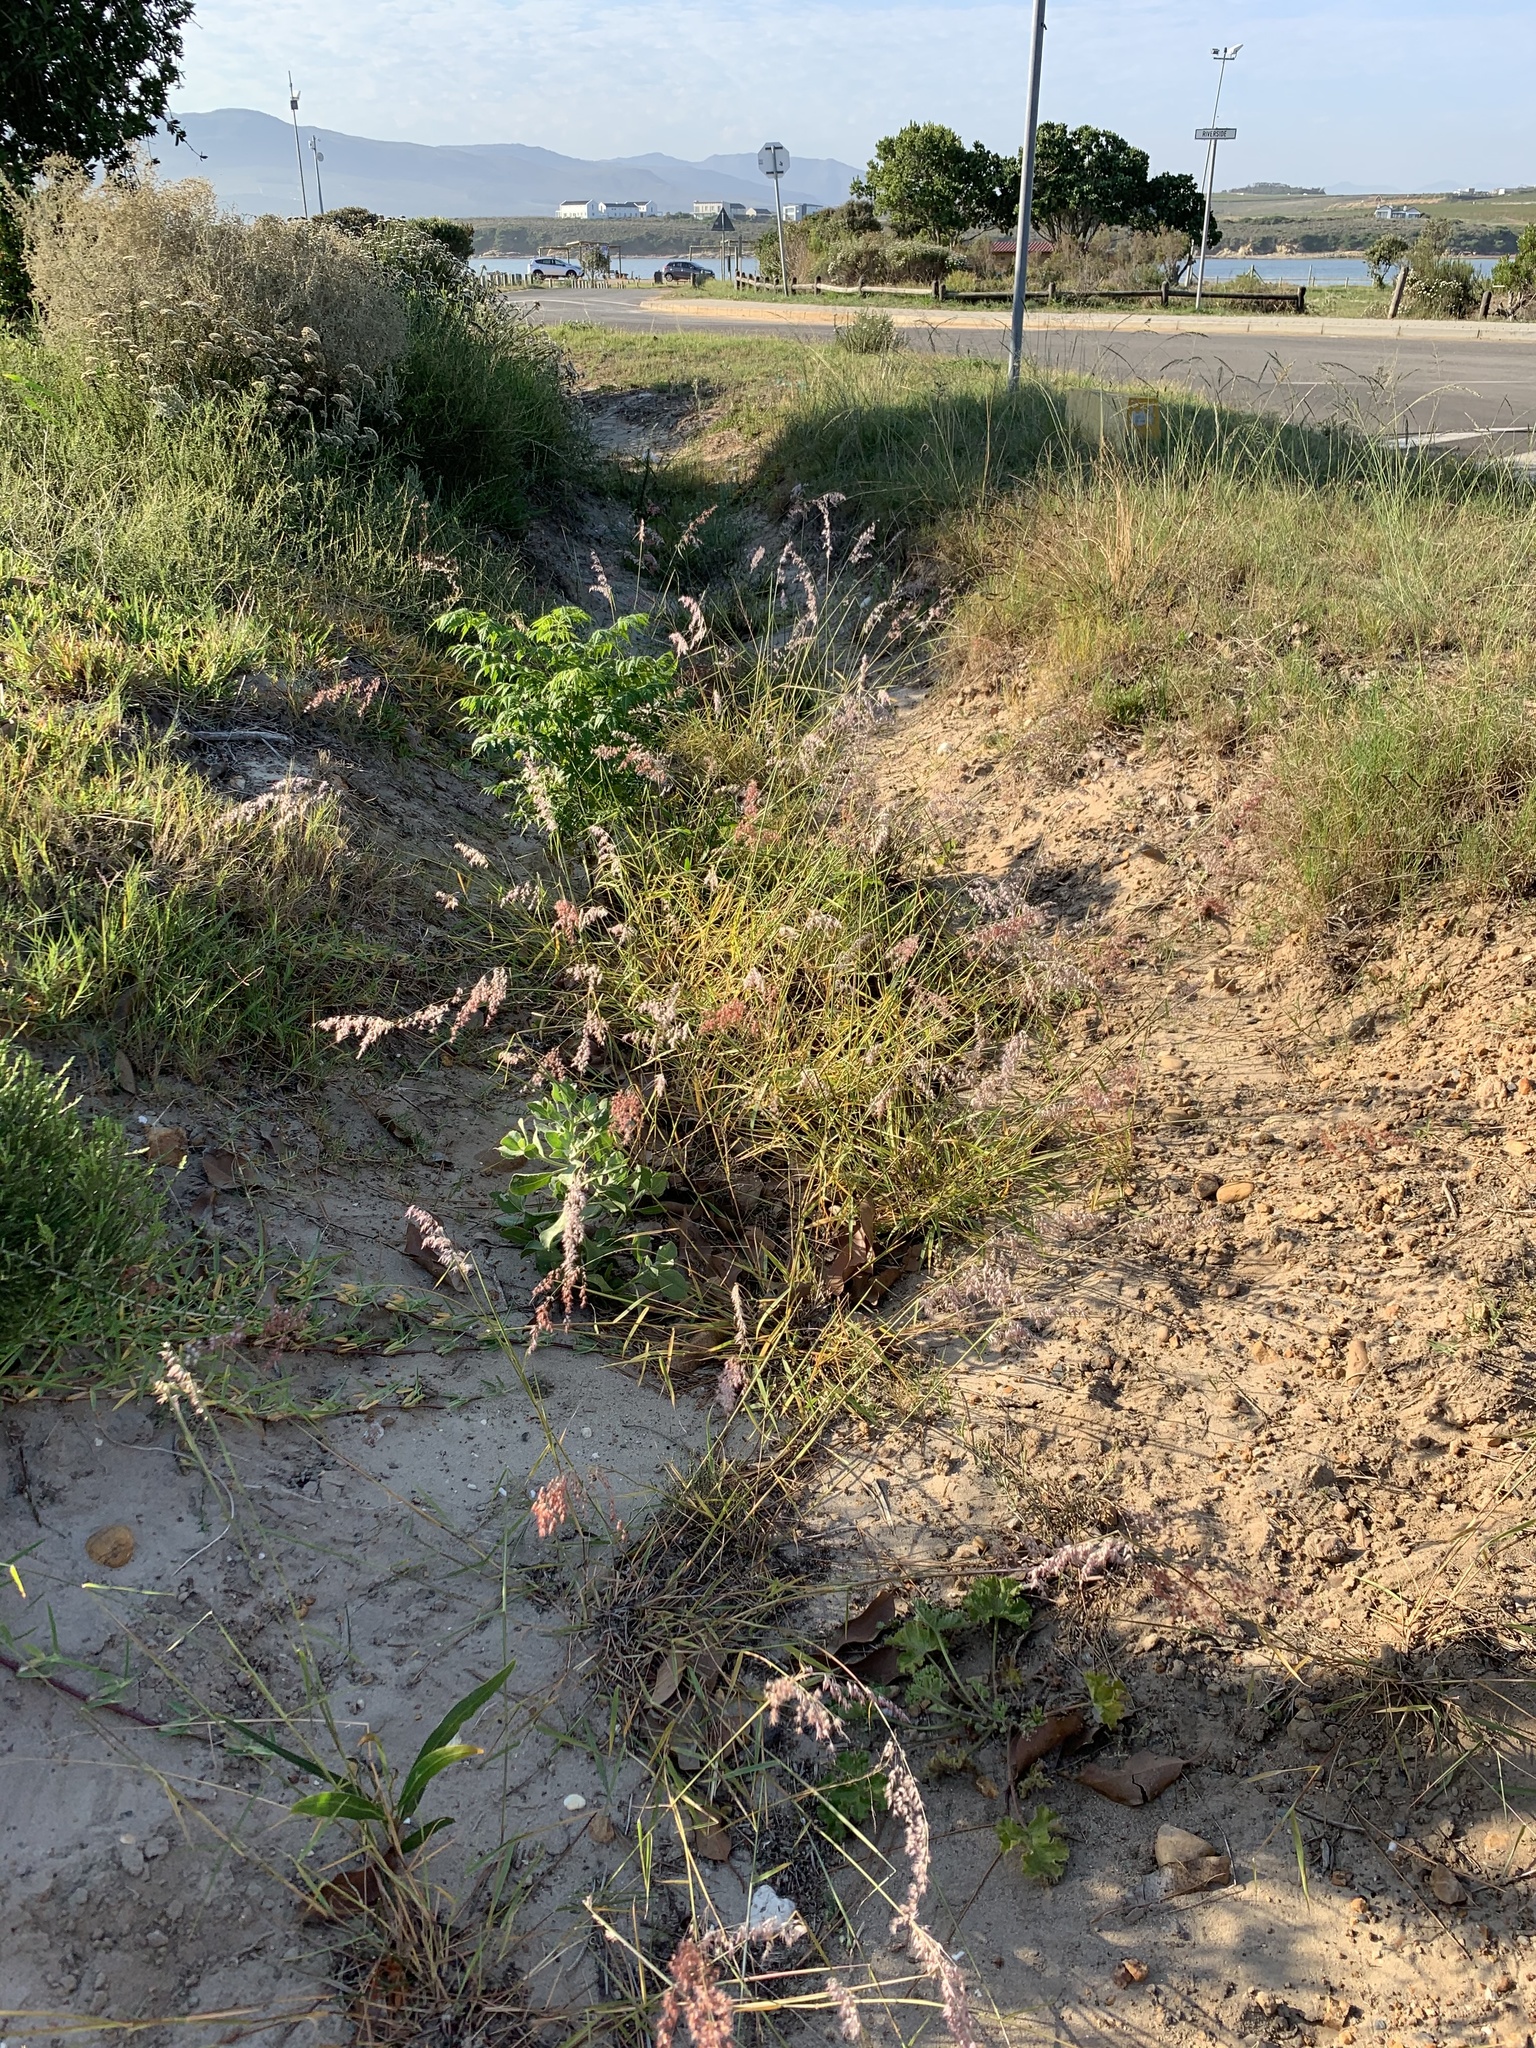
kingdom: Plantae
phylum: Tracheophyta
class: Liliopsida
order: Poales
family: Poaceae
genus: Melinis
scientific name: Melinis repens
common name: Rose natal grass
